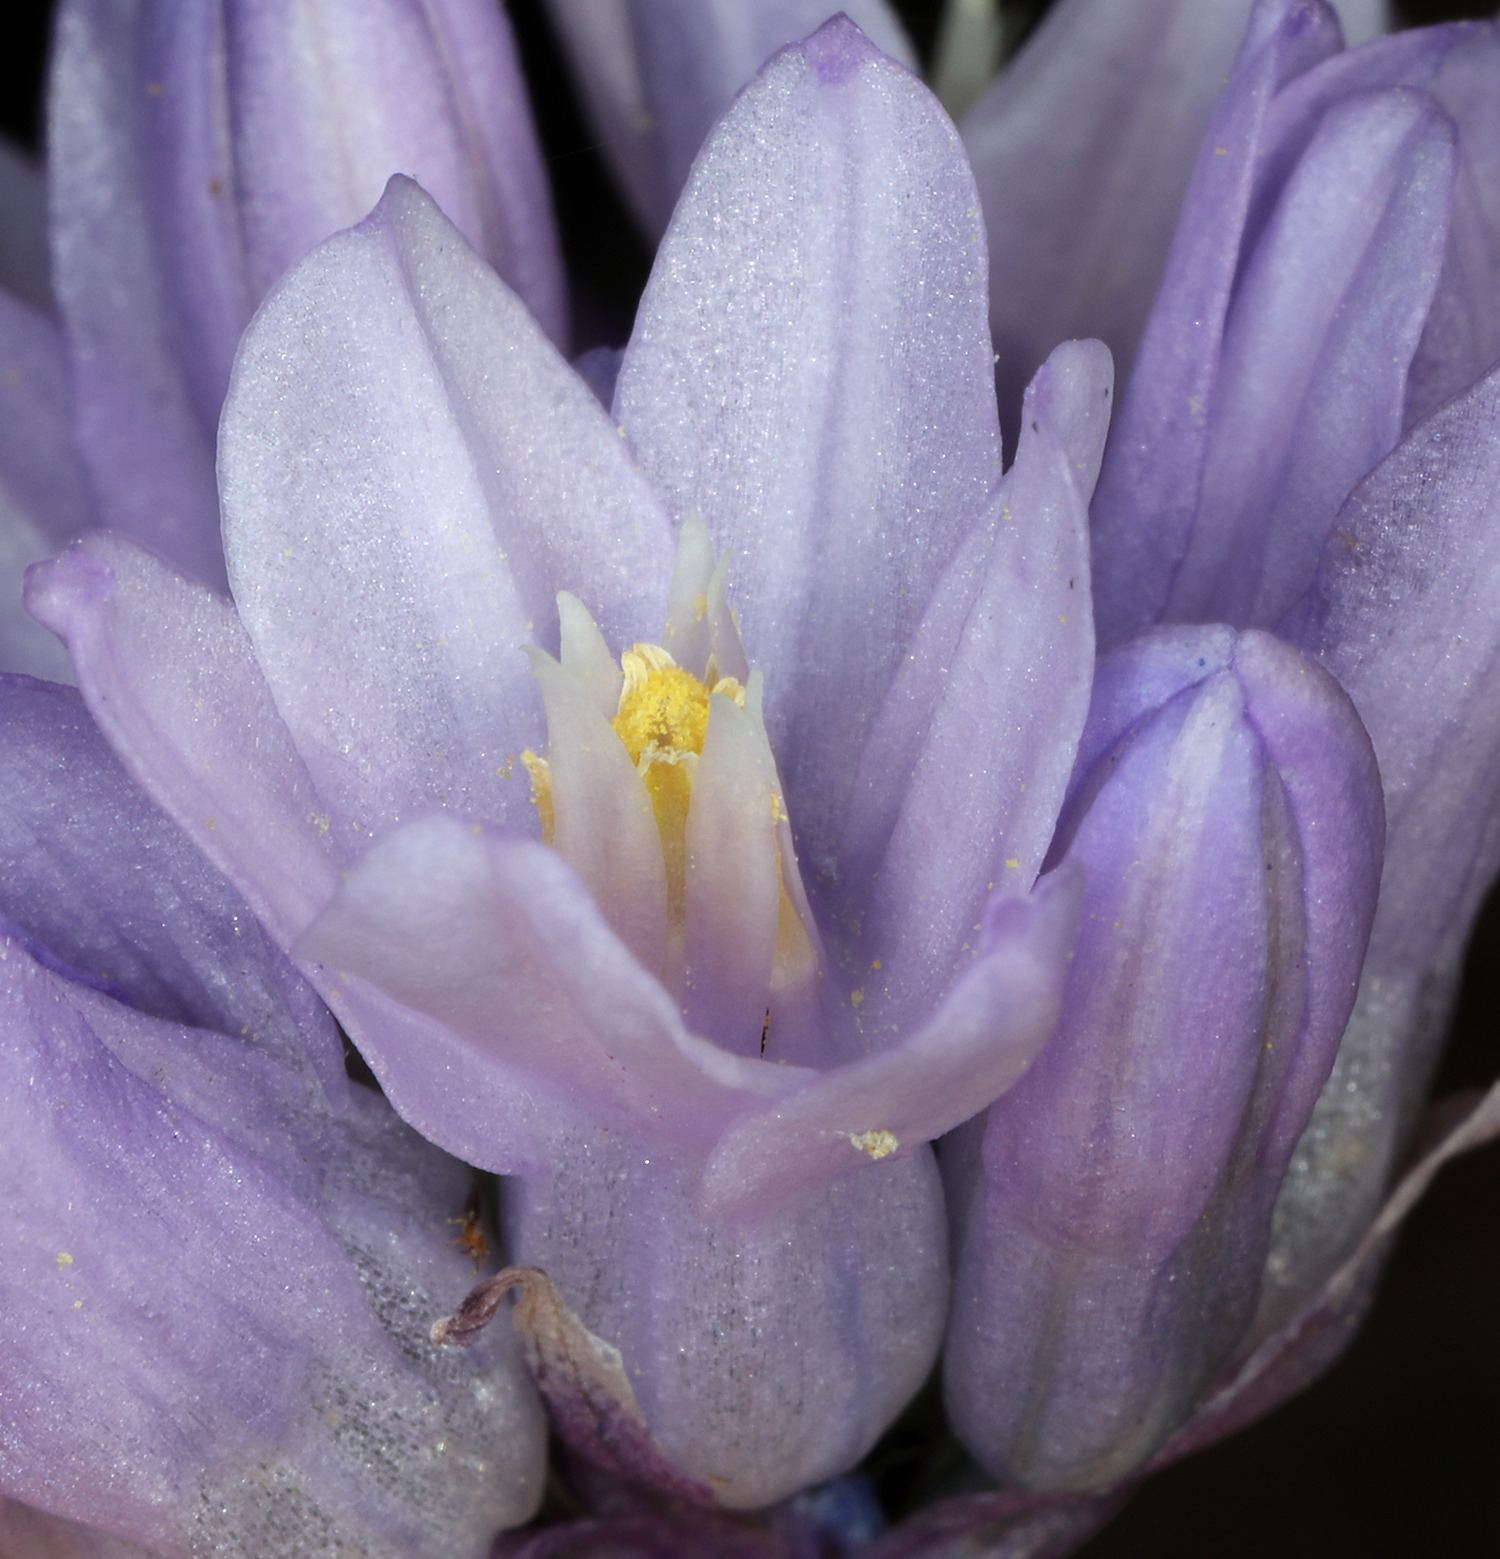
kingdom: Plantae
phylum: Tracheophyta
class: Liliopsida
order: Asparagales
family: Asparagaceae
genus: Dipterostemon
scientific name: Dipterostemon capitatus
